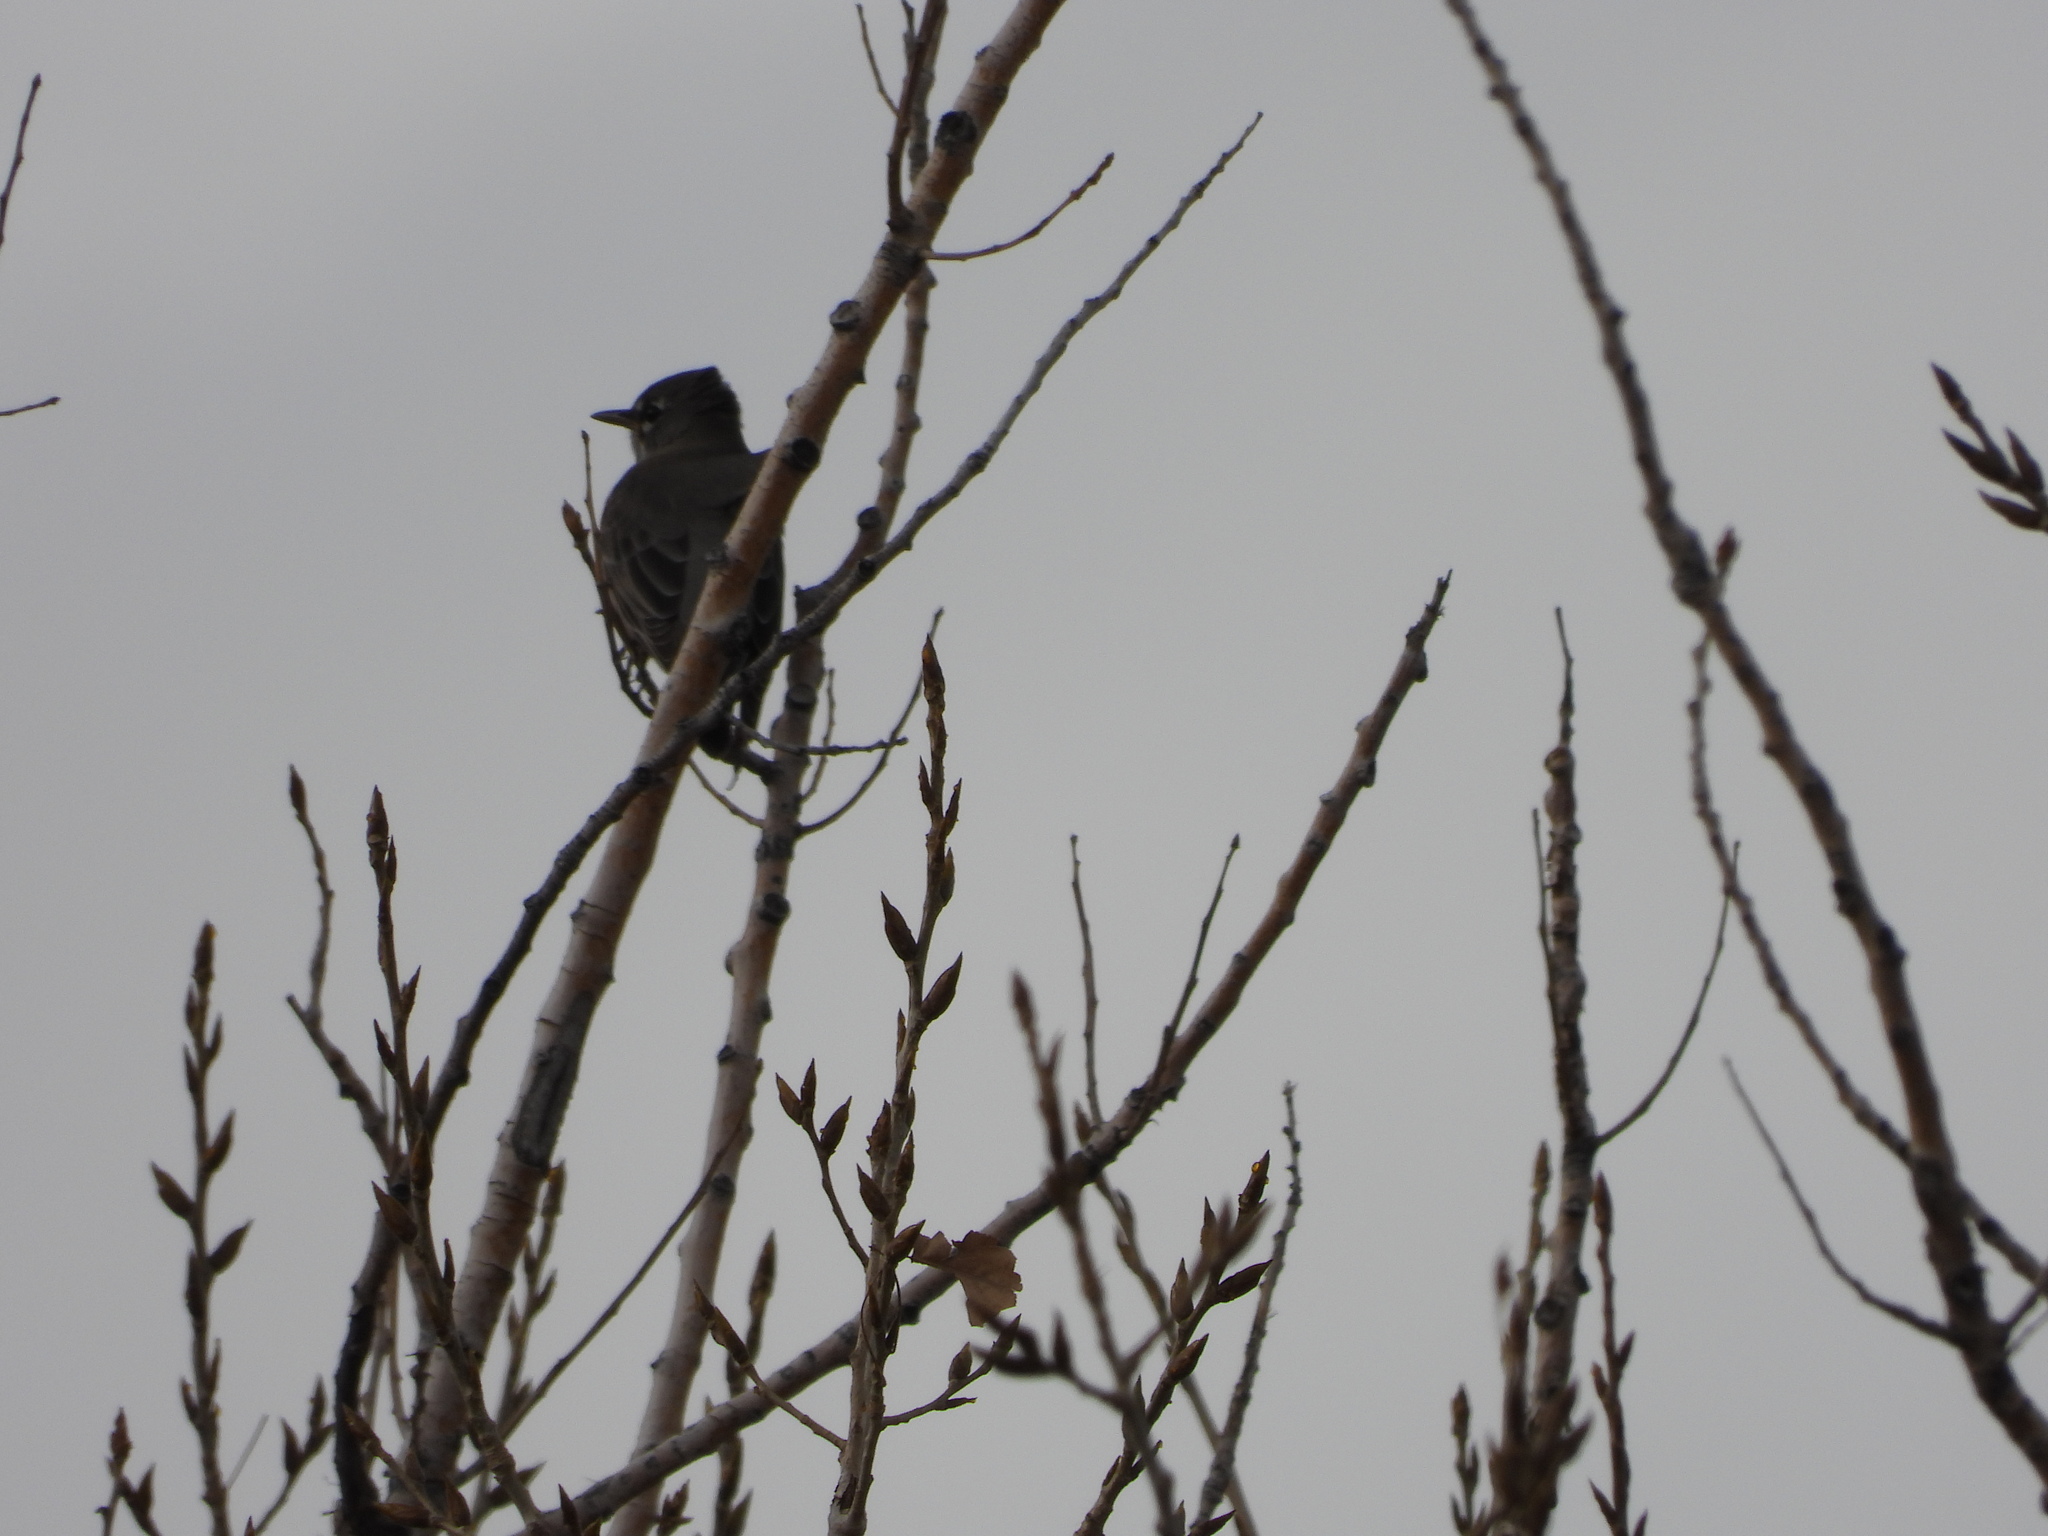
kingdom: Animalia
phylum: Chordata
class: Aves
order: Passeriformes
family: Turdidae
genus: Turdus
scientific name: Turdus migratorius
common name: American robin
